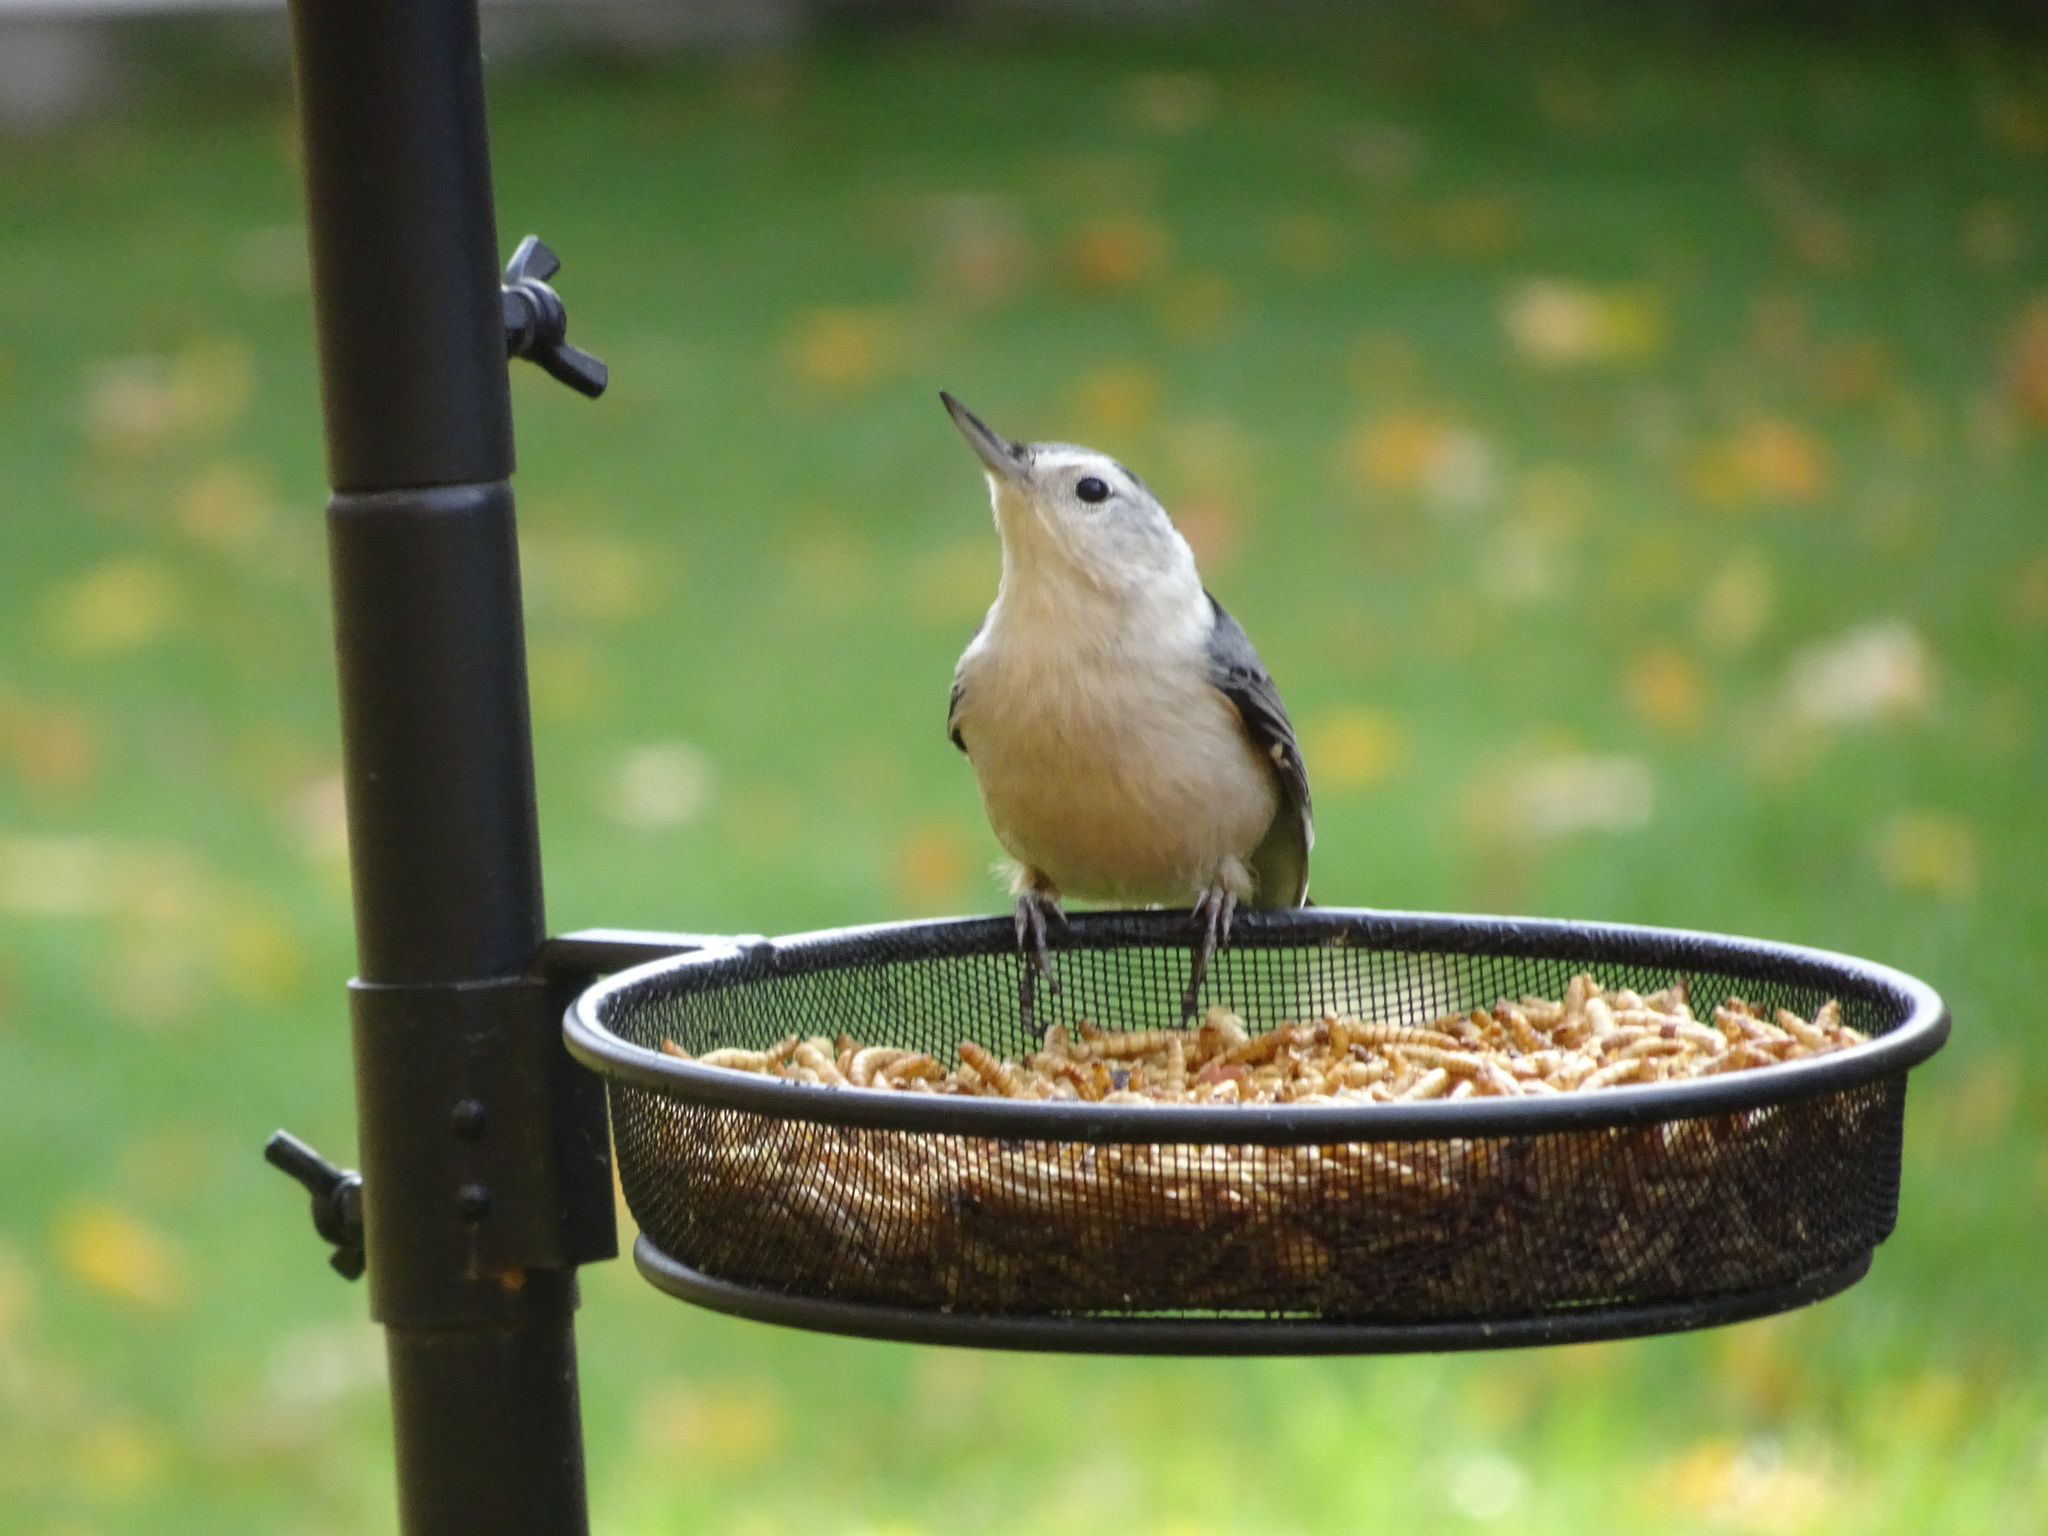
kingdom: Animalia
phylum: Chordata
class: Aves
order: Passeriformes
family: Sittidae
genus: Sitta
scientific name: Sitta carolinensis
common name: White-breasted nuthatch
